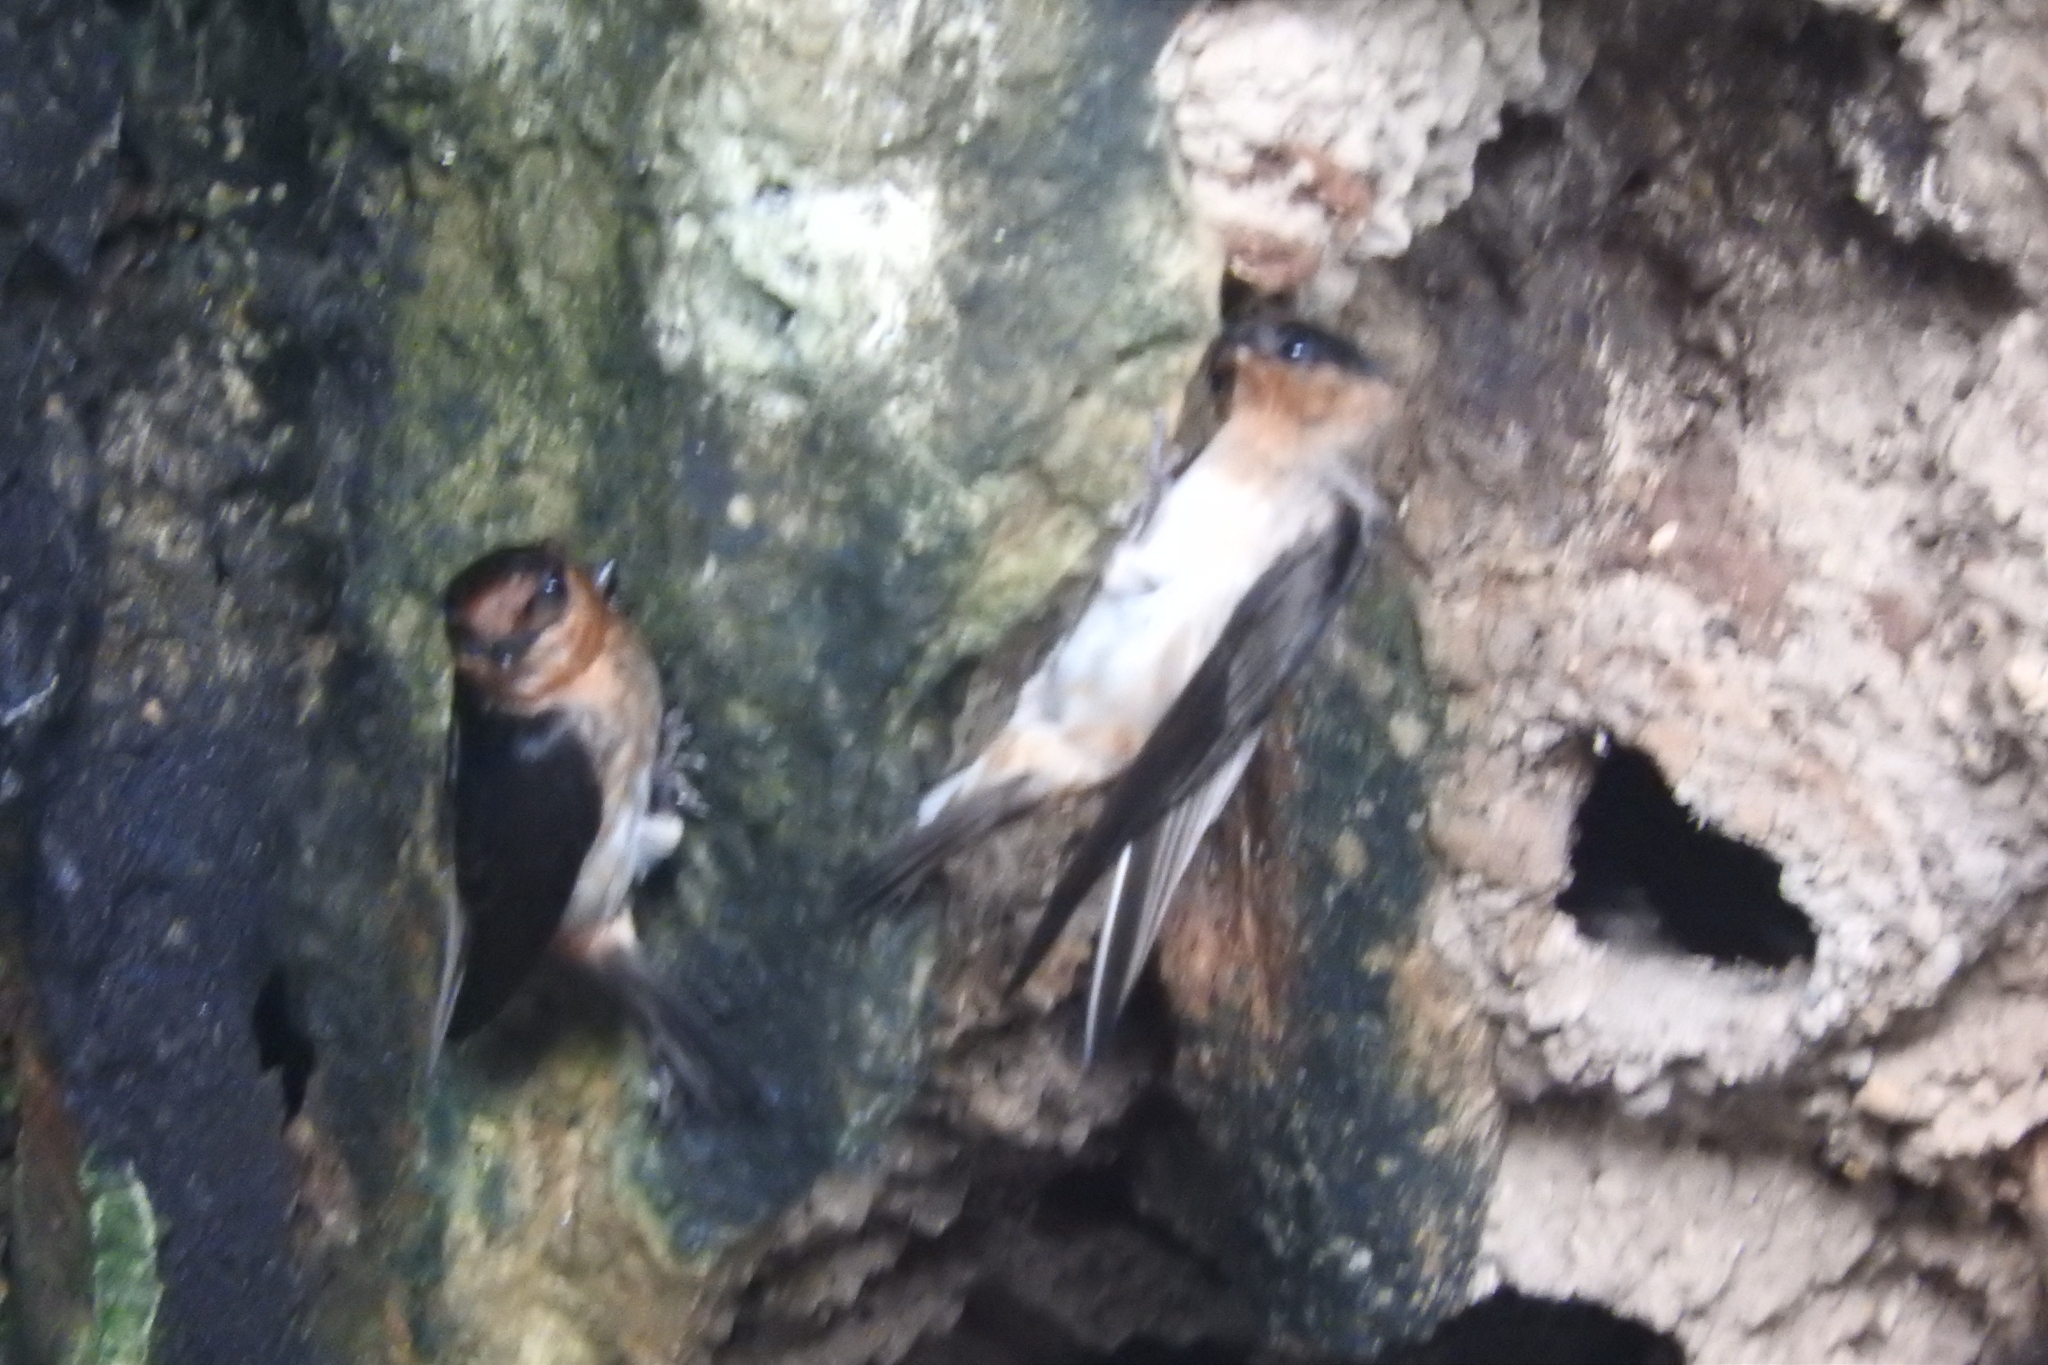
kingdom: Animalia
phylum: Chordata
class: Aves
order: Passeriformes
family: Hirundinidae
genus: Petrochelidon
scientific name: Petrochelidon fulva
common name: Cave swallow
